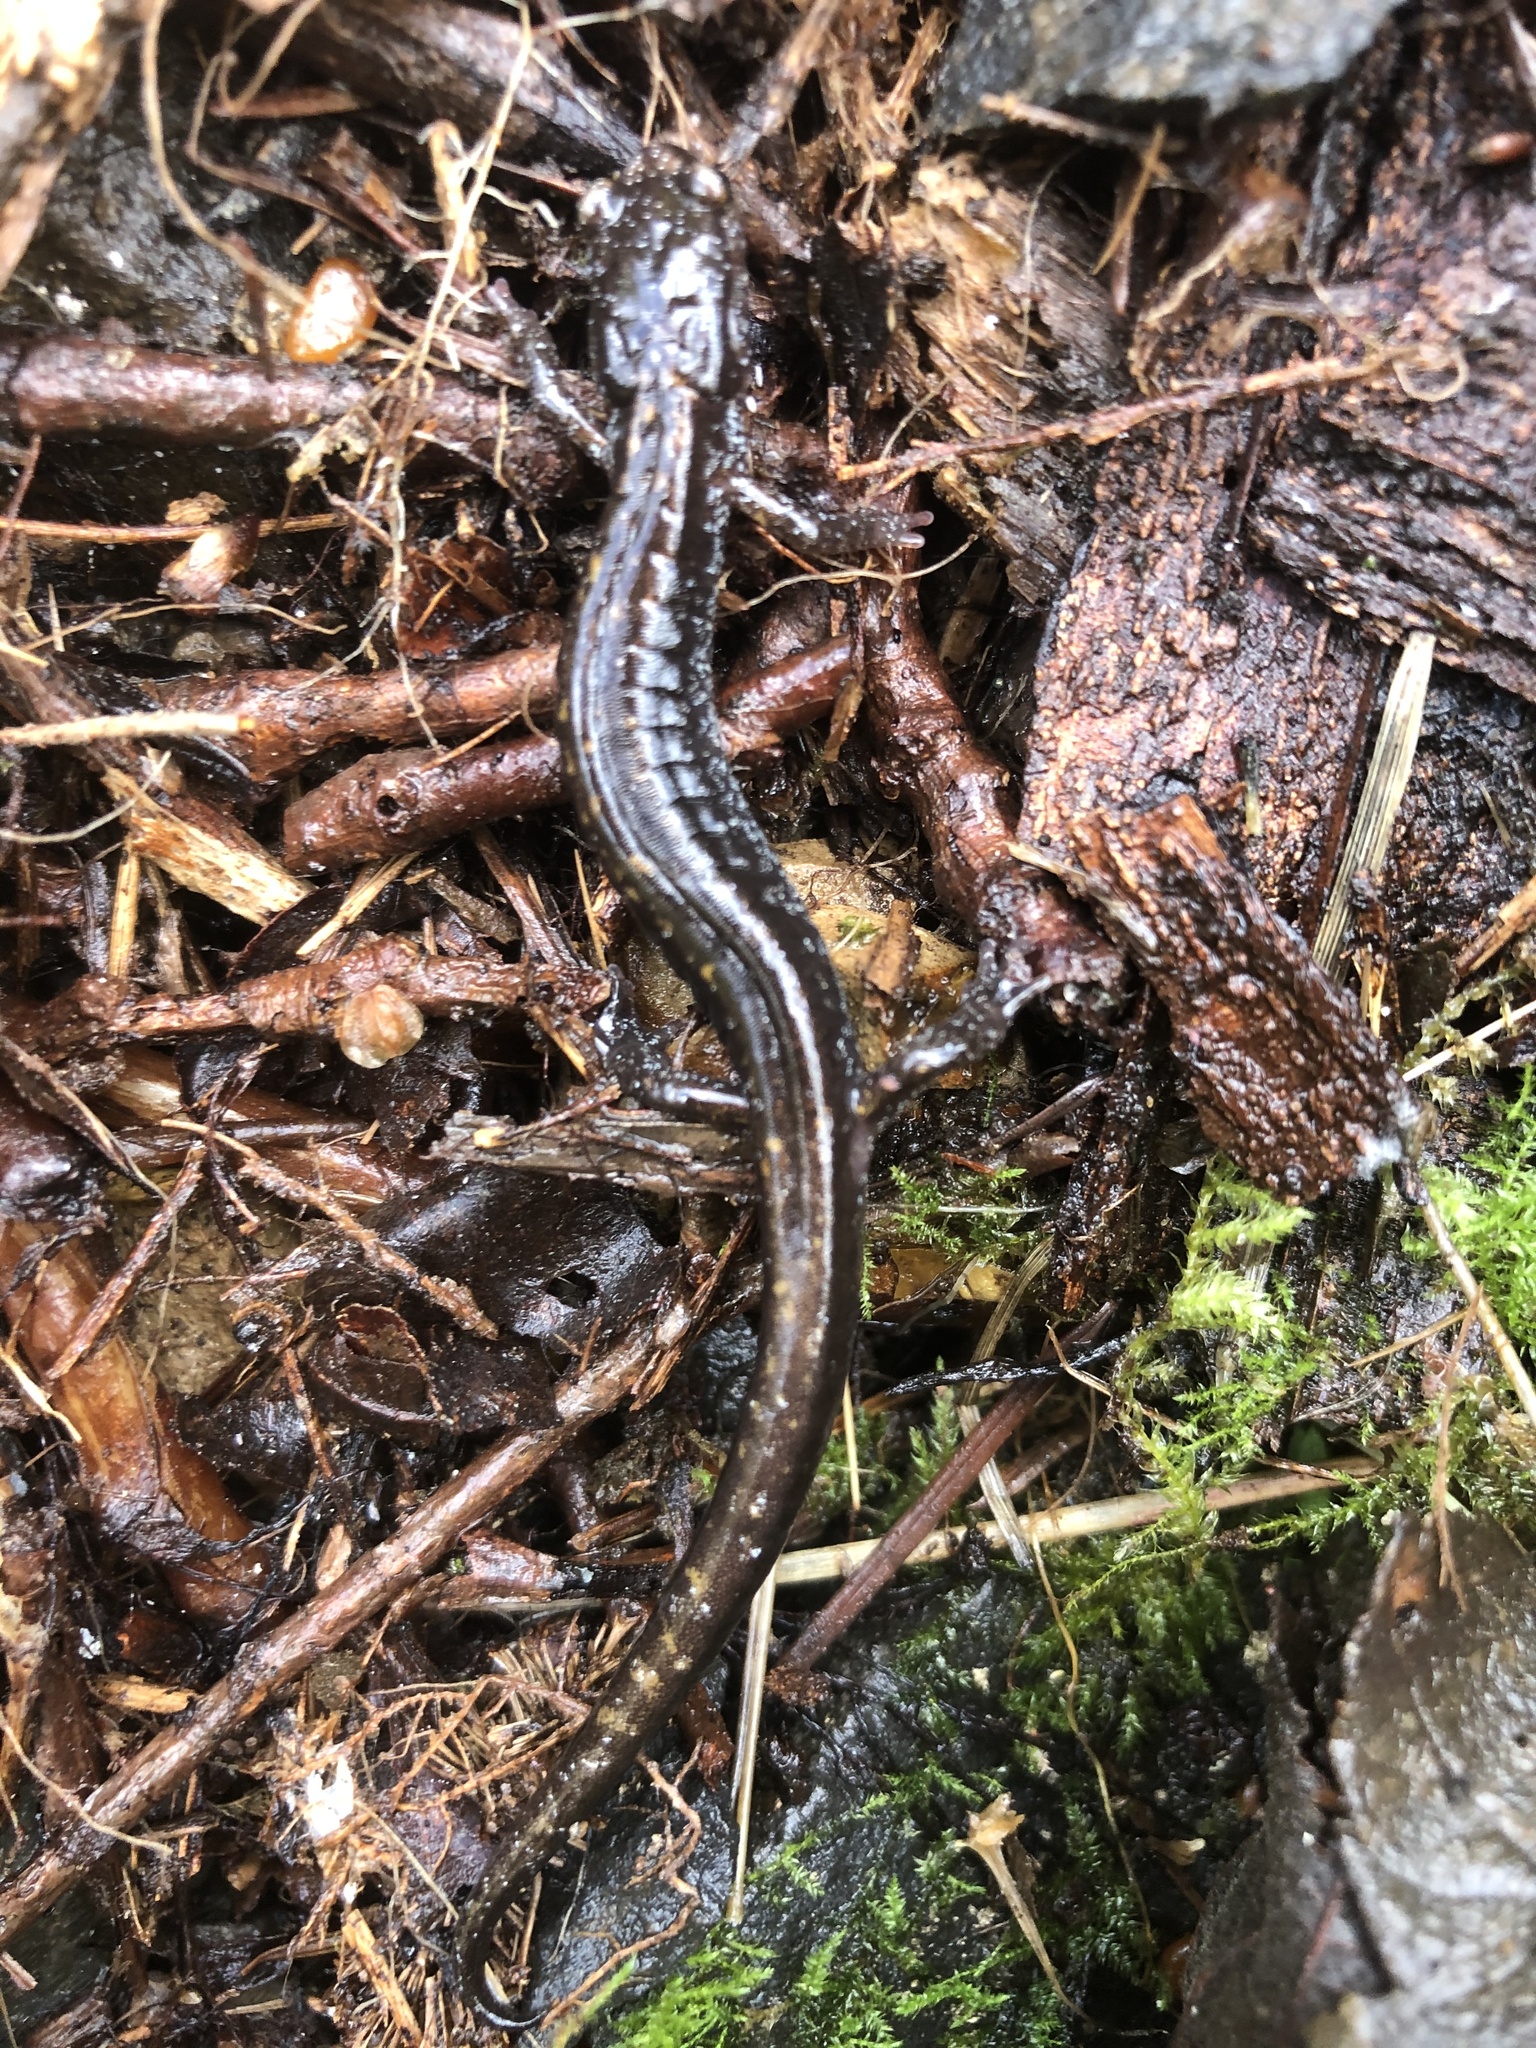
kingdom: Animalia
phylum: Chordata
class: Amphibia
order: Caudata
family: Plethodontidae
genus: Plethodon
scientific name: Plethodon vehiculum
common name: Western red-backed salamander
